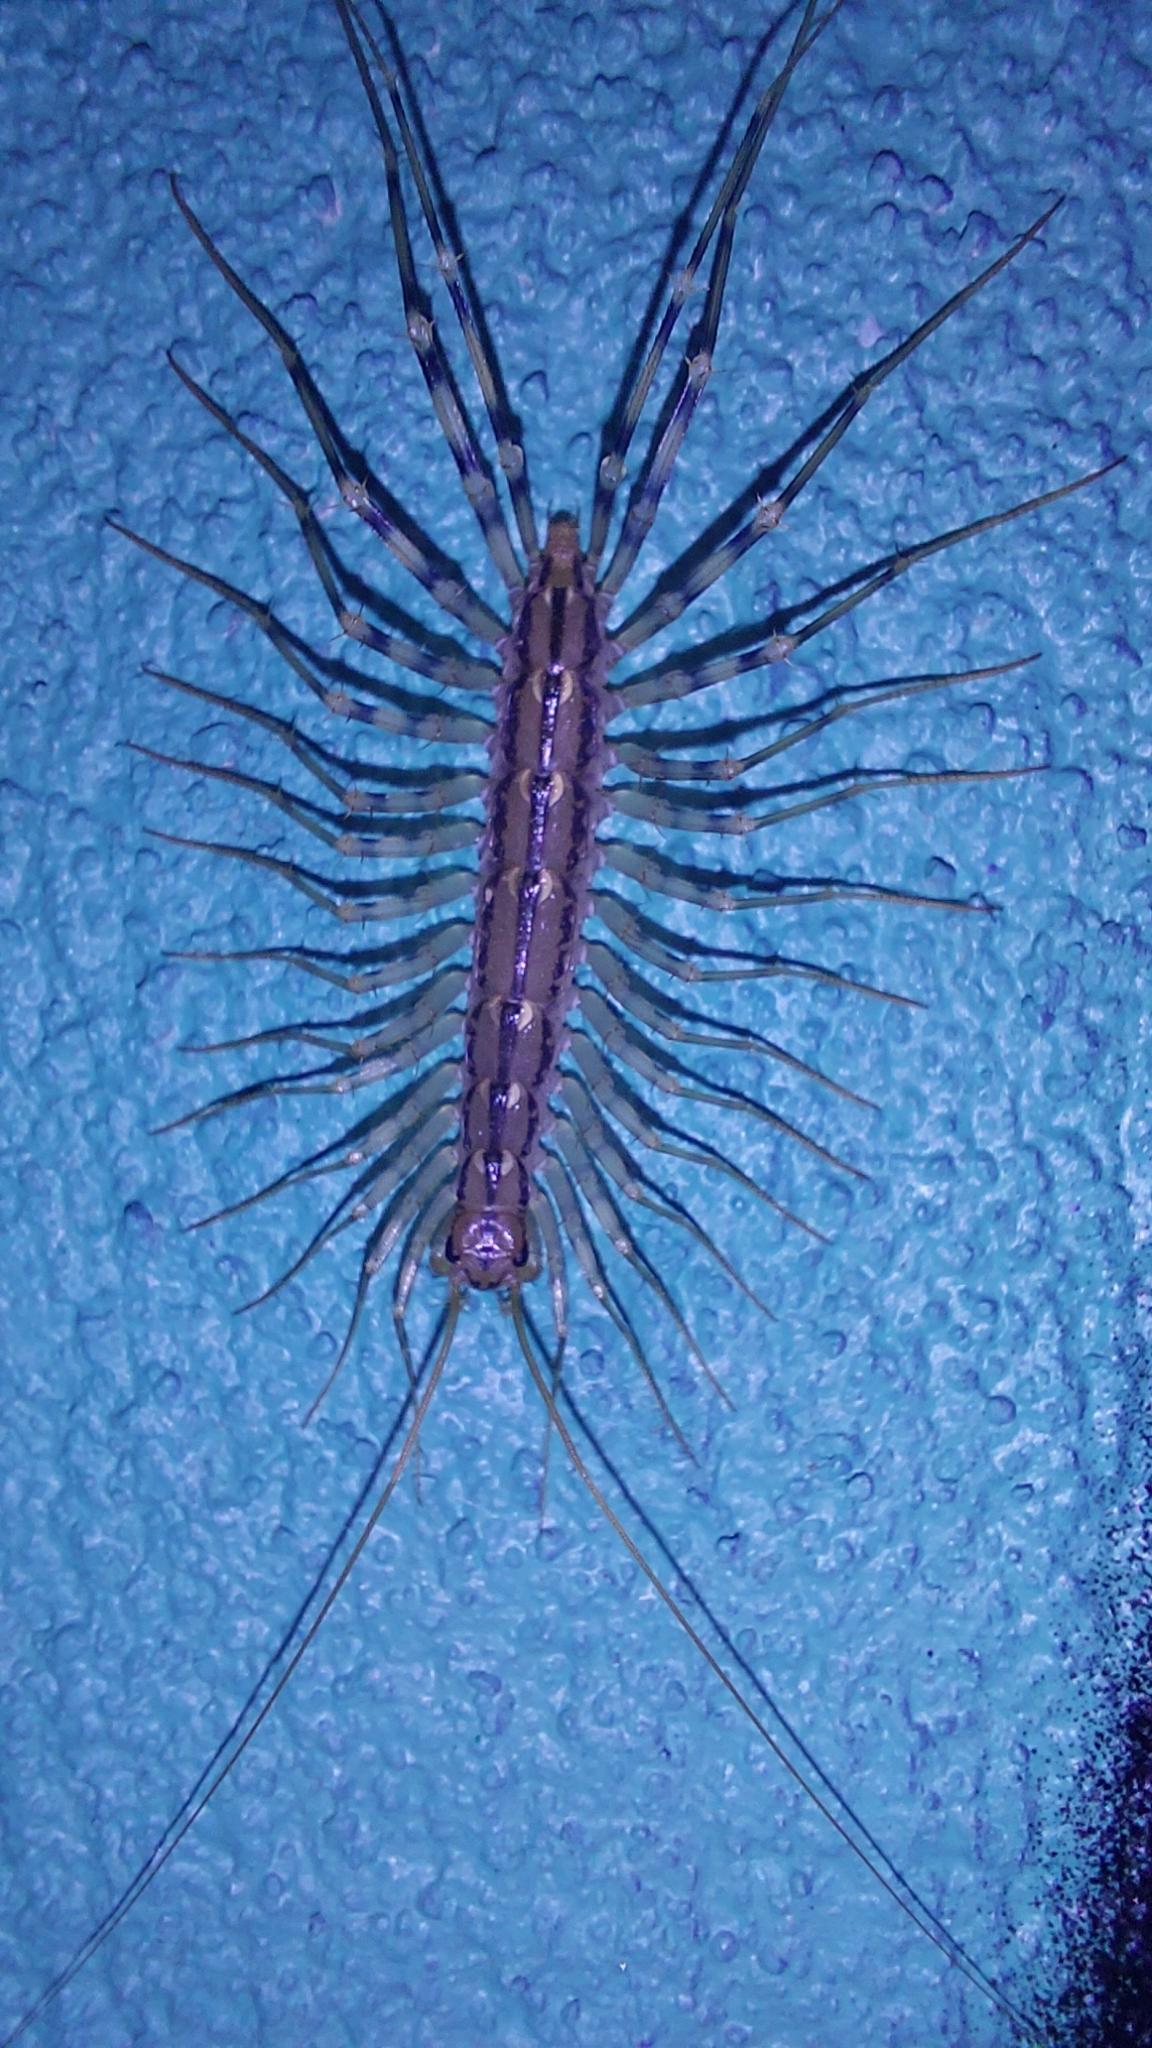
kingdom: Animalia
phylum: Arthropoda
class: Chilopoda
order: Scutigeromorpha
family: Scutigeridae
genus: Scutigera
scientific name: Scutigera coleoptrata
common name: House centipede
